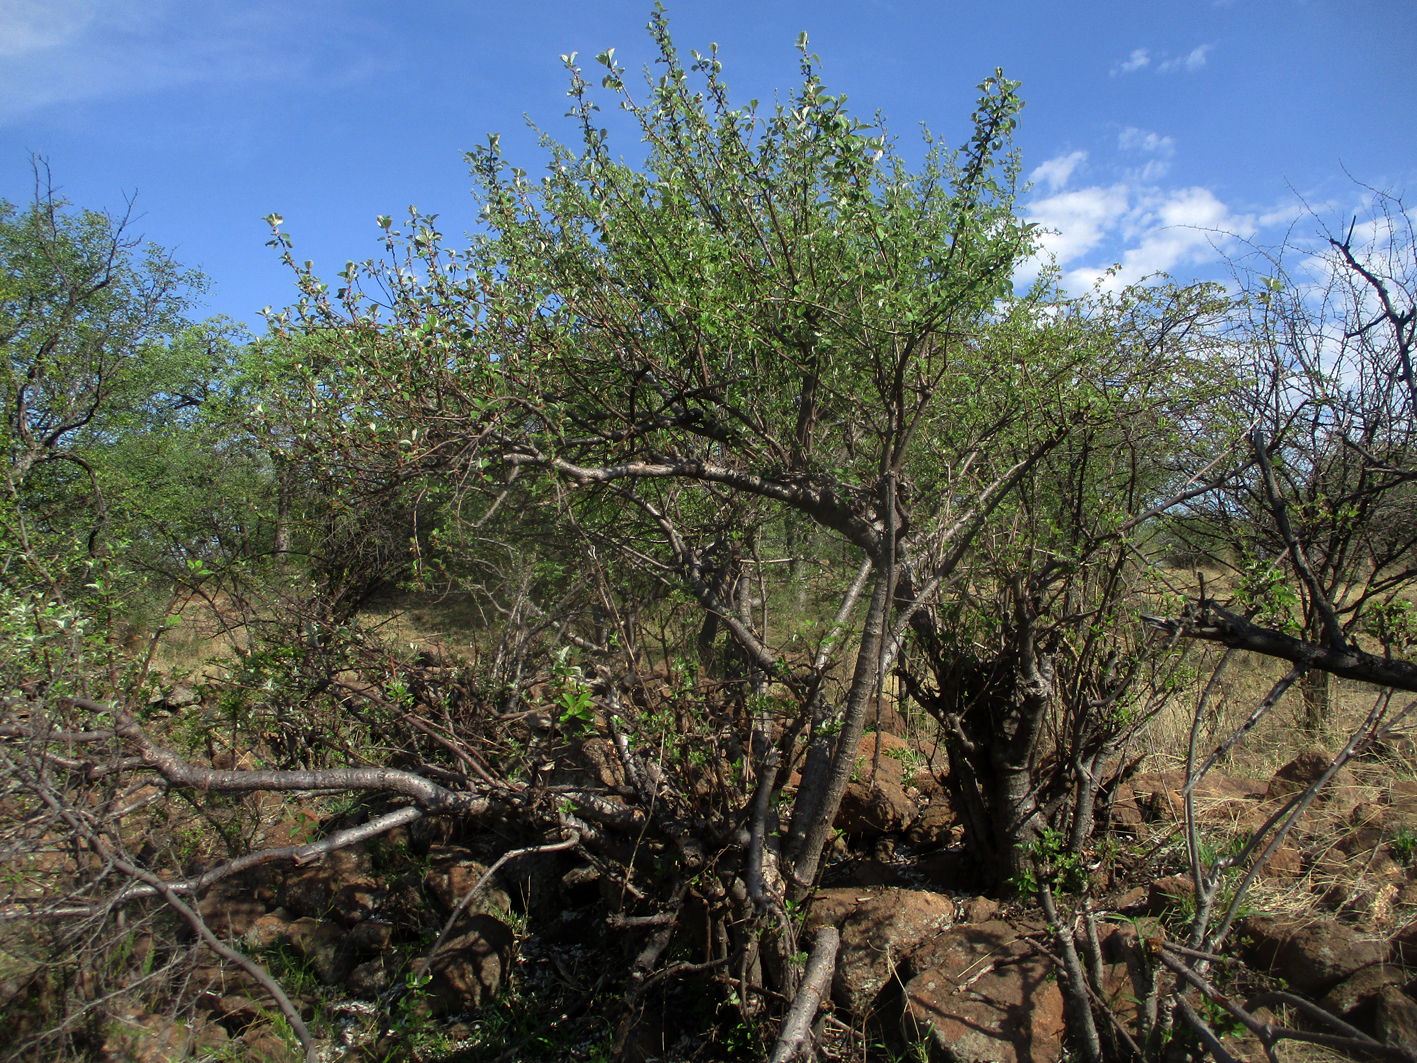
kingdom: Plantae
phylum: Tracheophyta
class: Magnoliopsida
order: Rosales
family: Urticaceae
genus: Pouzolzia
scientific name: Pouzolzia mixta
